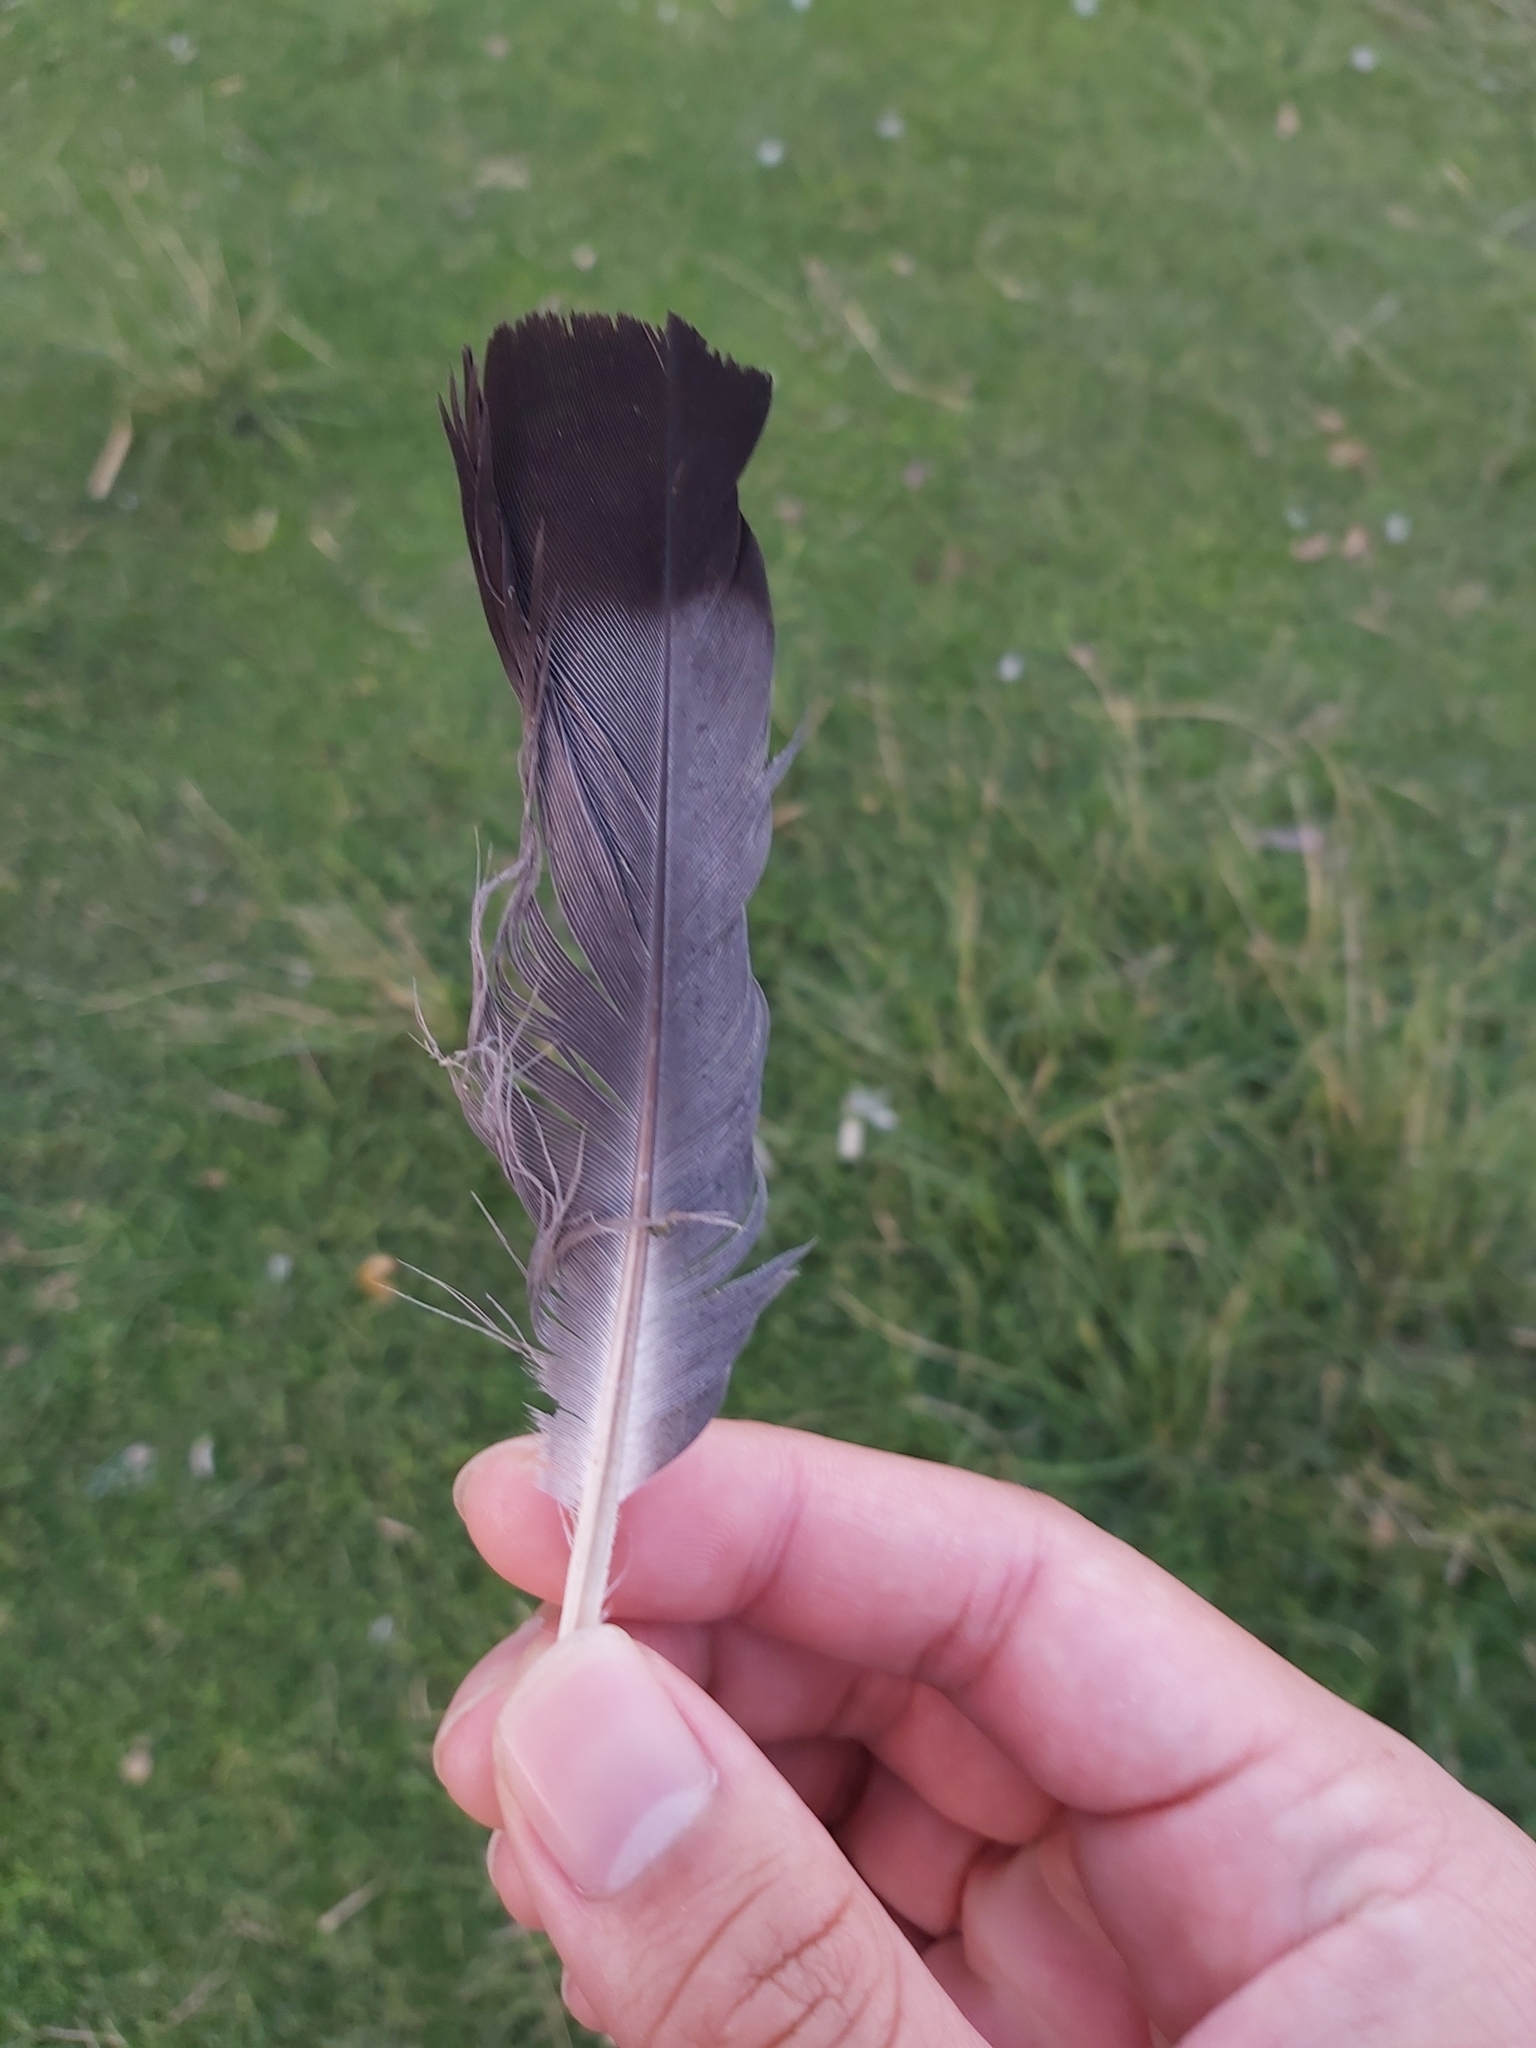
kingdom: Animalia
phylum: Chordata
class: Aves
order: Columbiformes
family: Columbidae
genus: Columba
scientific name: Columba livia
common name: Rock pigeon
